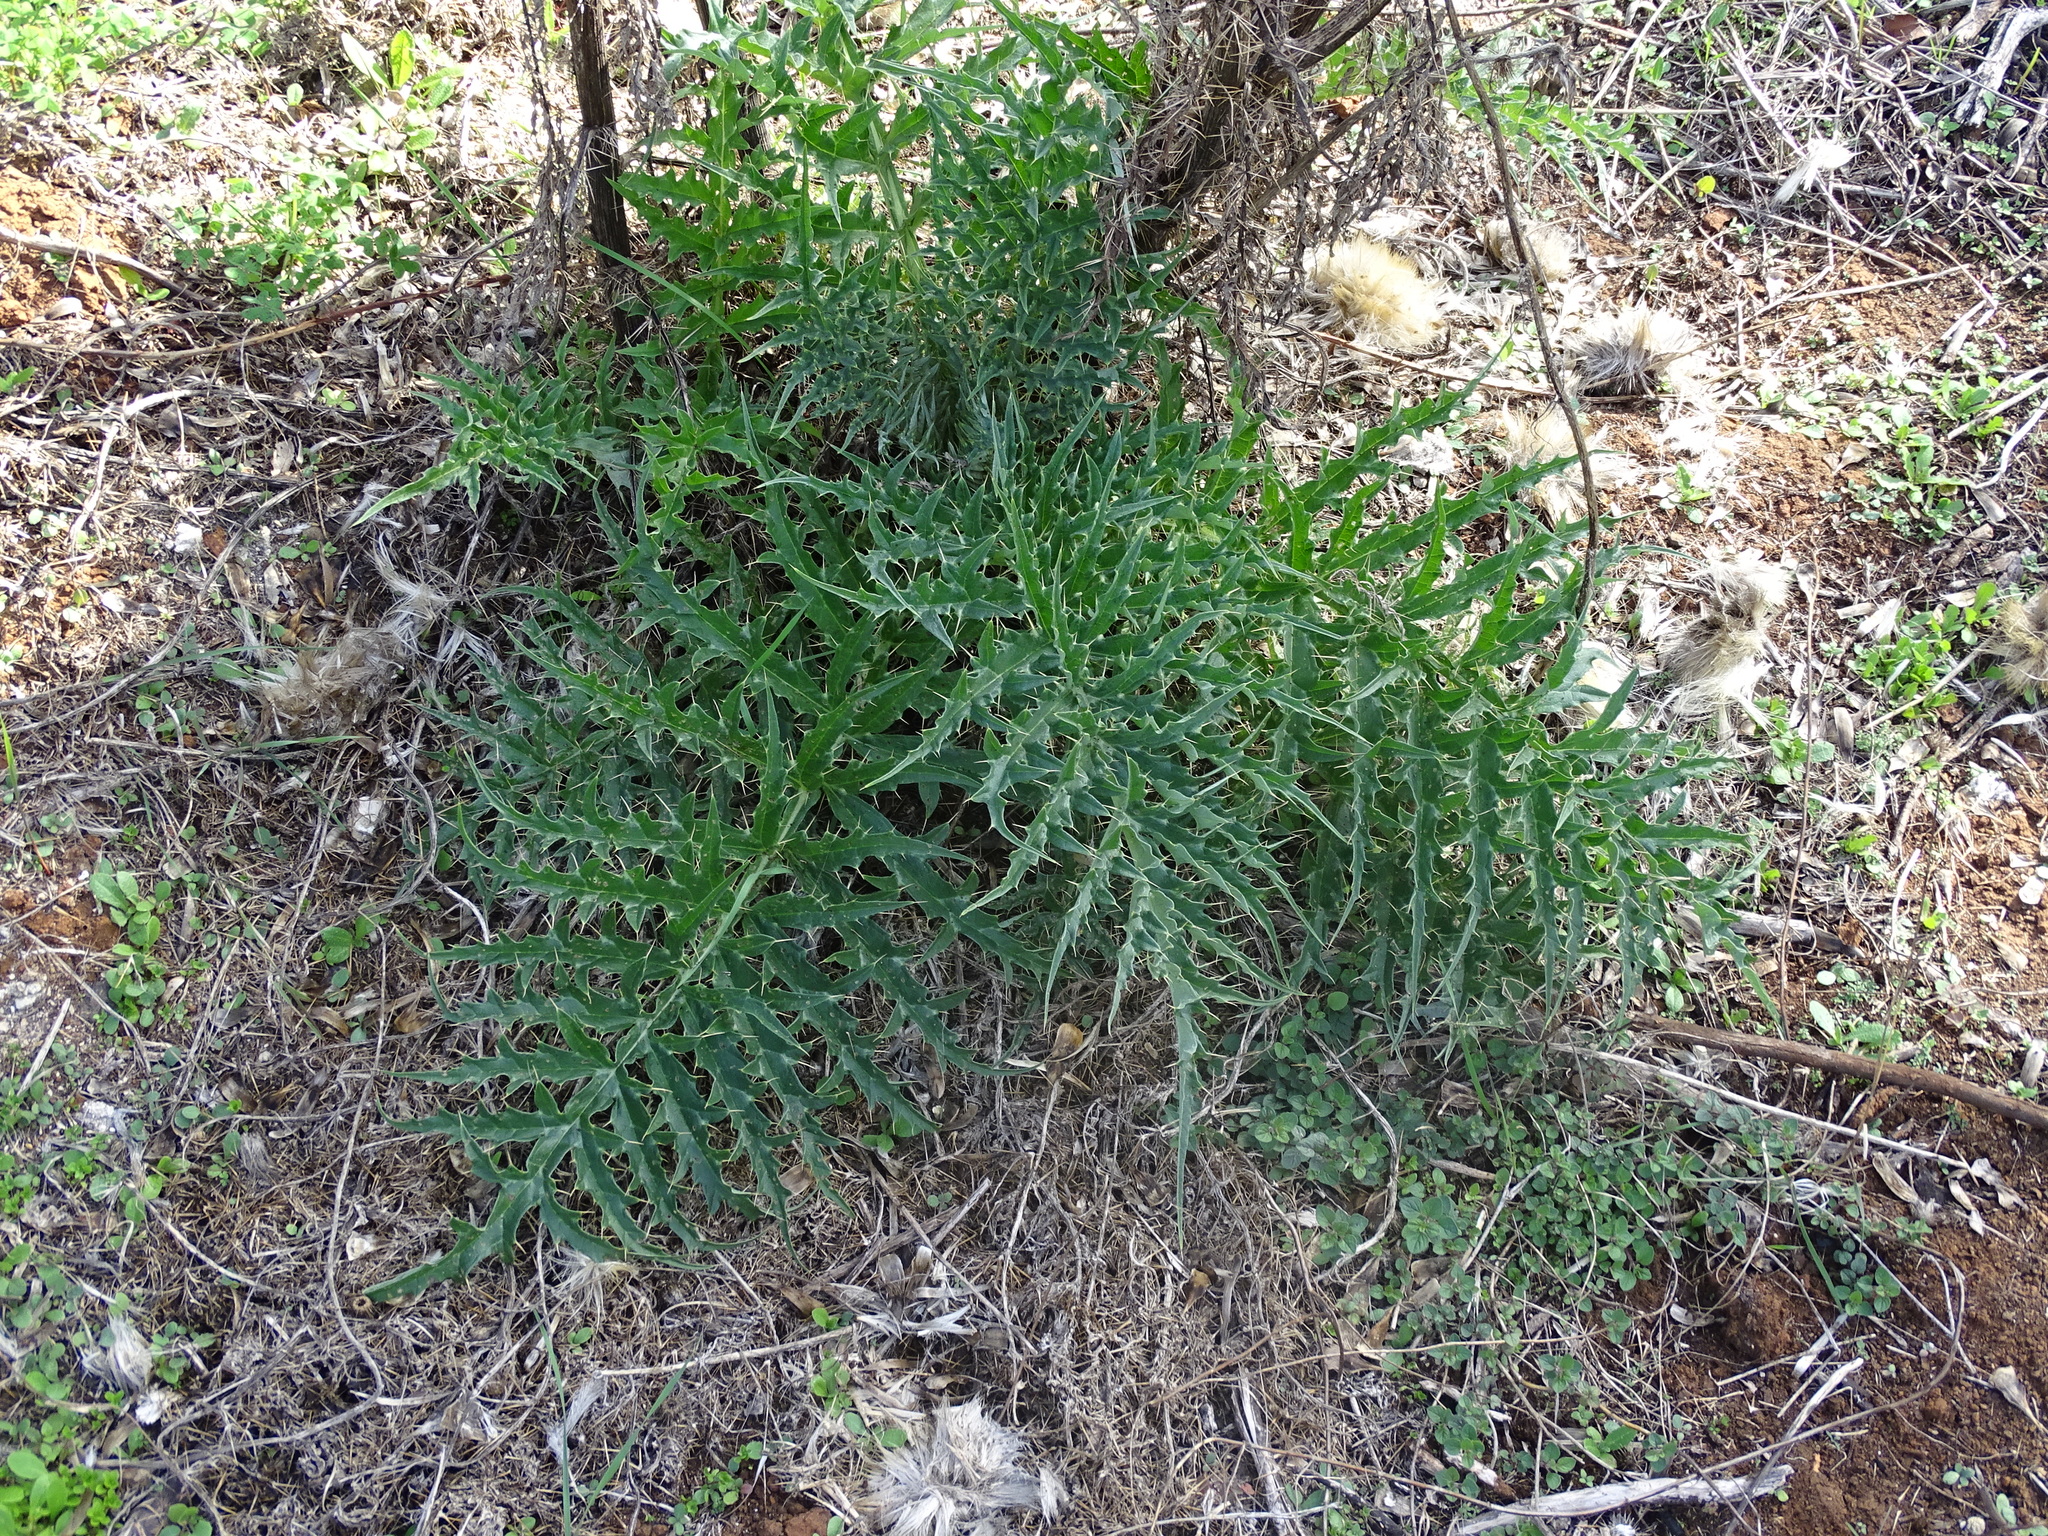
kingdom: Plantae
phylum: Tracheophyta
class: Magnoliopsida
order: Asterales
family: Asteraceae
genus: Cynara
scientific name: Cynara cardunculus
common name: Globe artichoke
